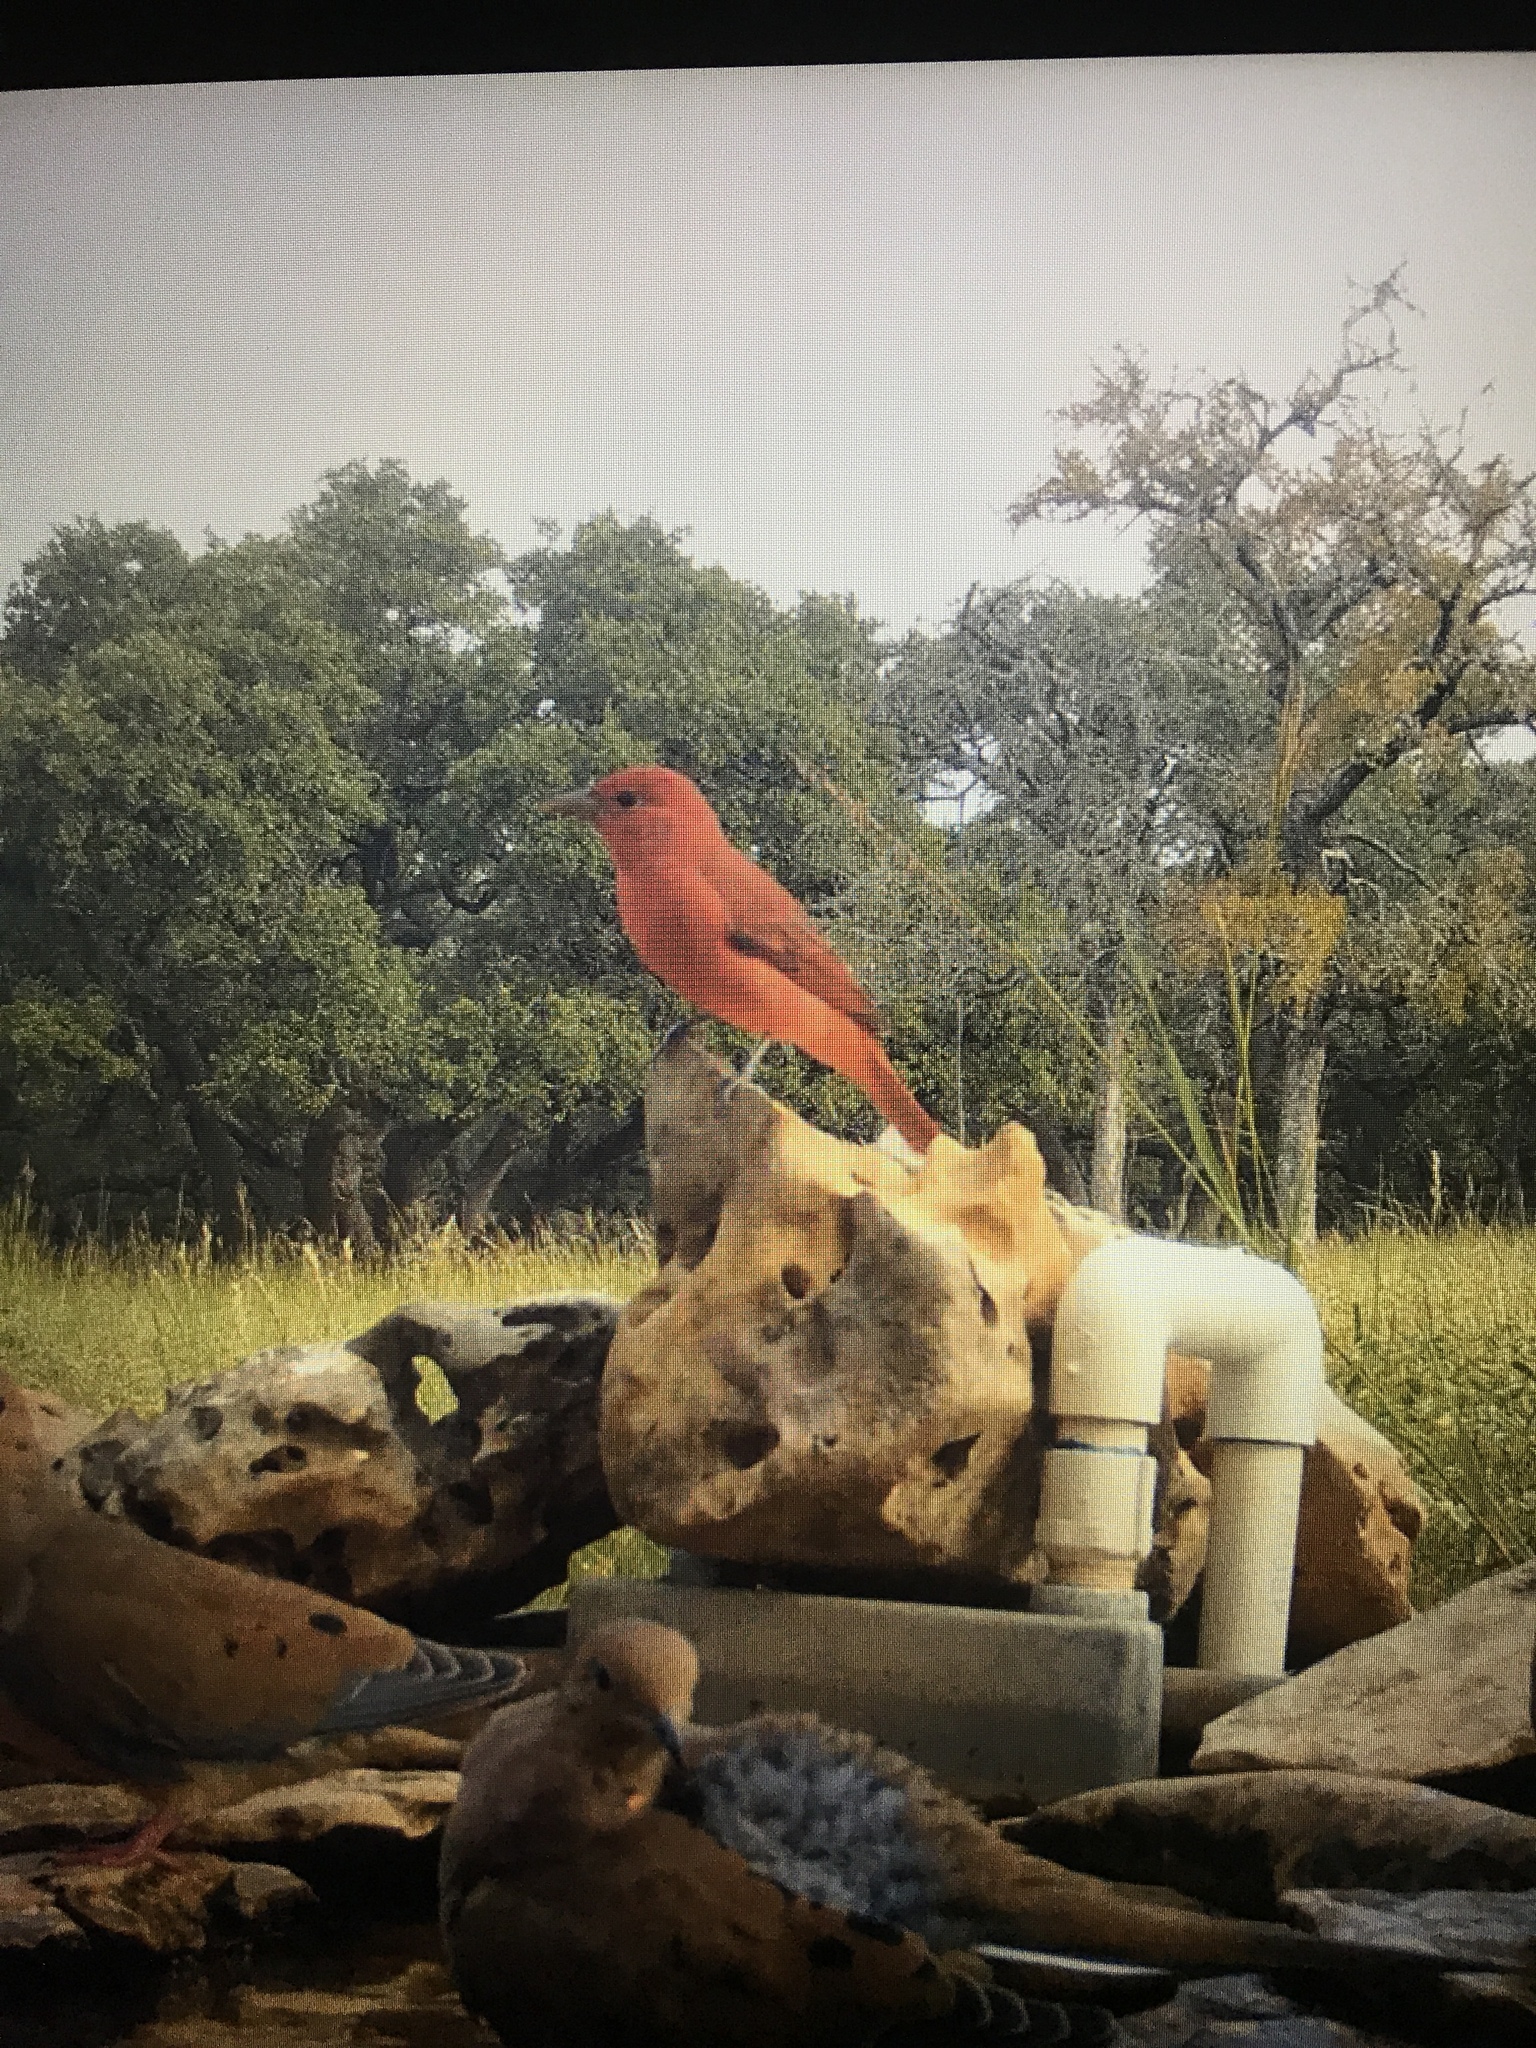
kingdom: Animalia
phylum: Chordata
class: Aves
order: Passeriformes
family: Cardinalidae
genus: Piranga
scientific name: Piranga rubra
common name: Summer tanager
